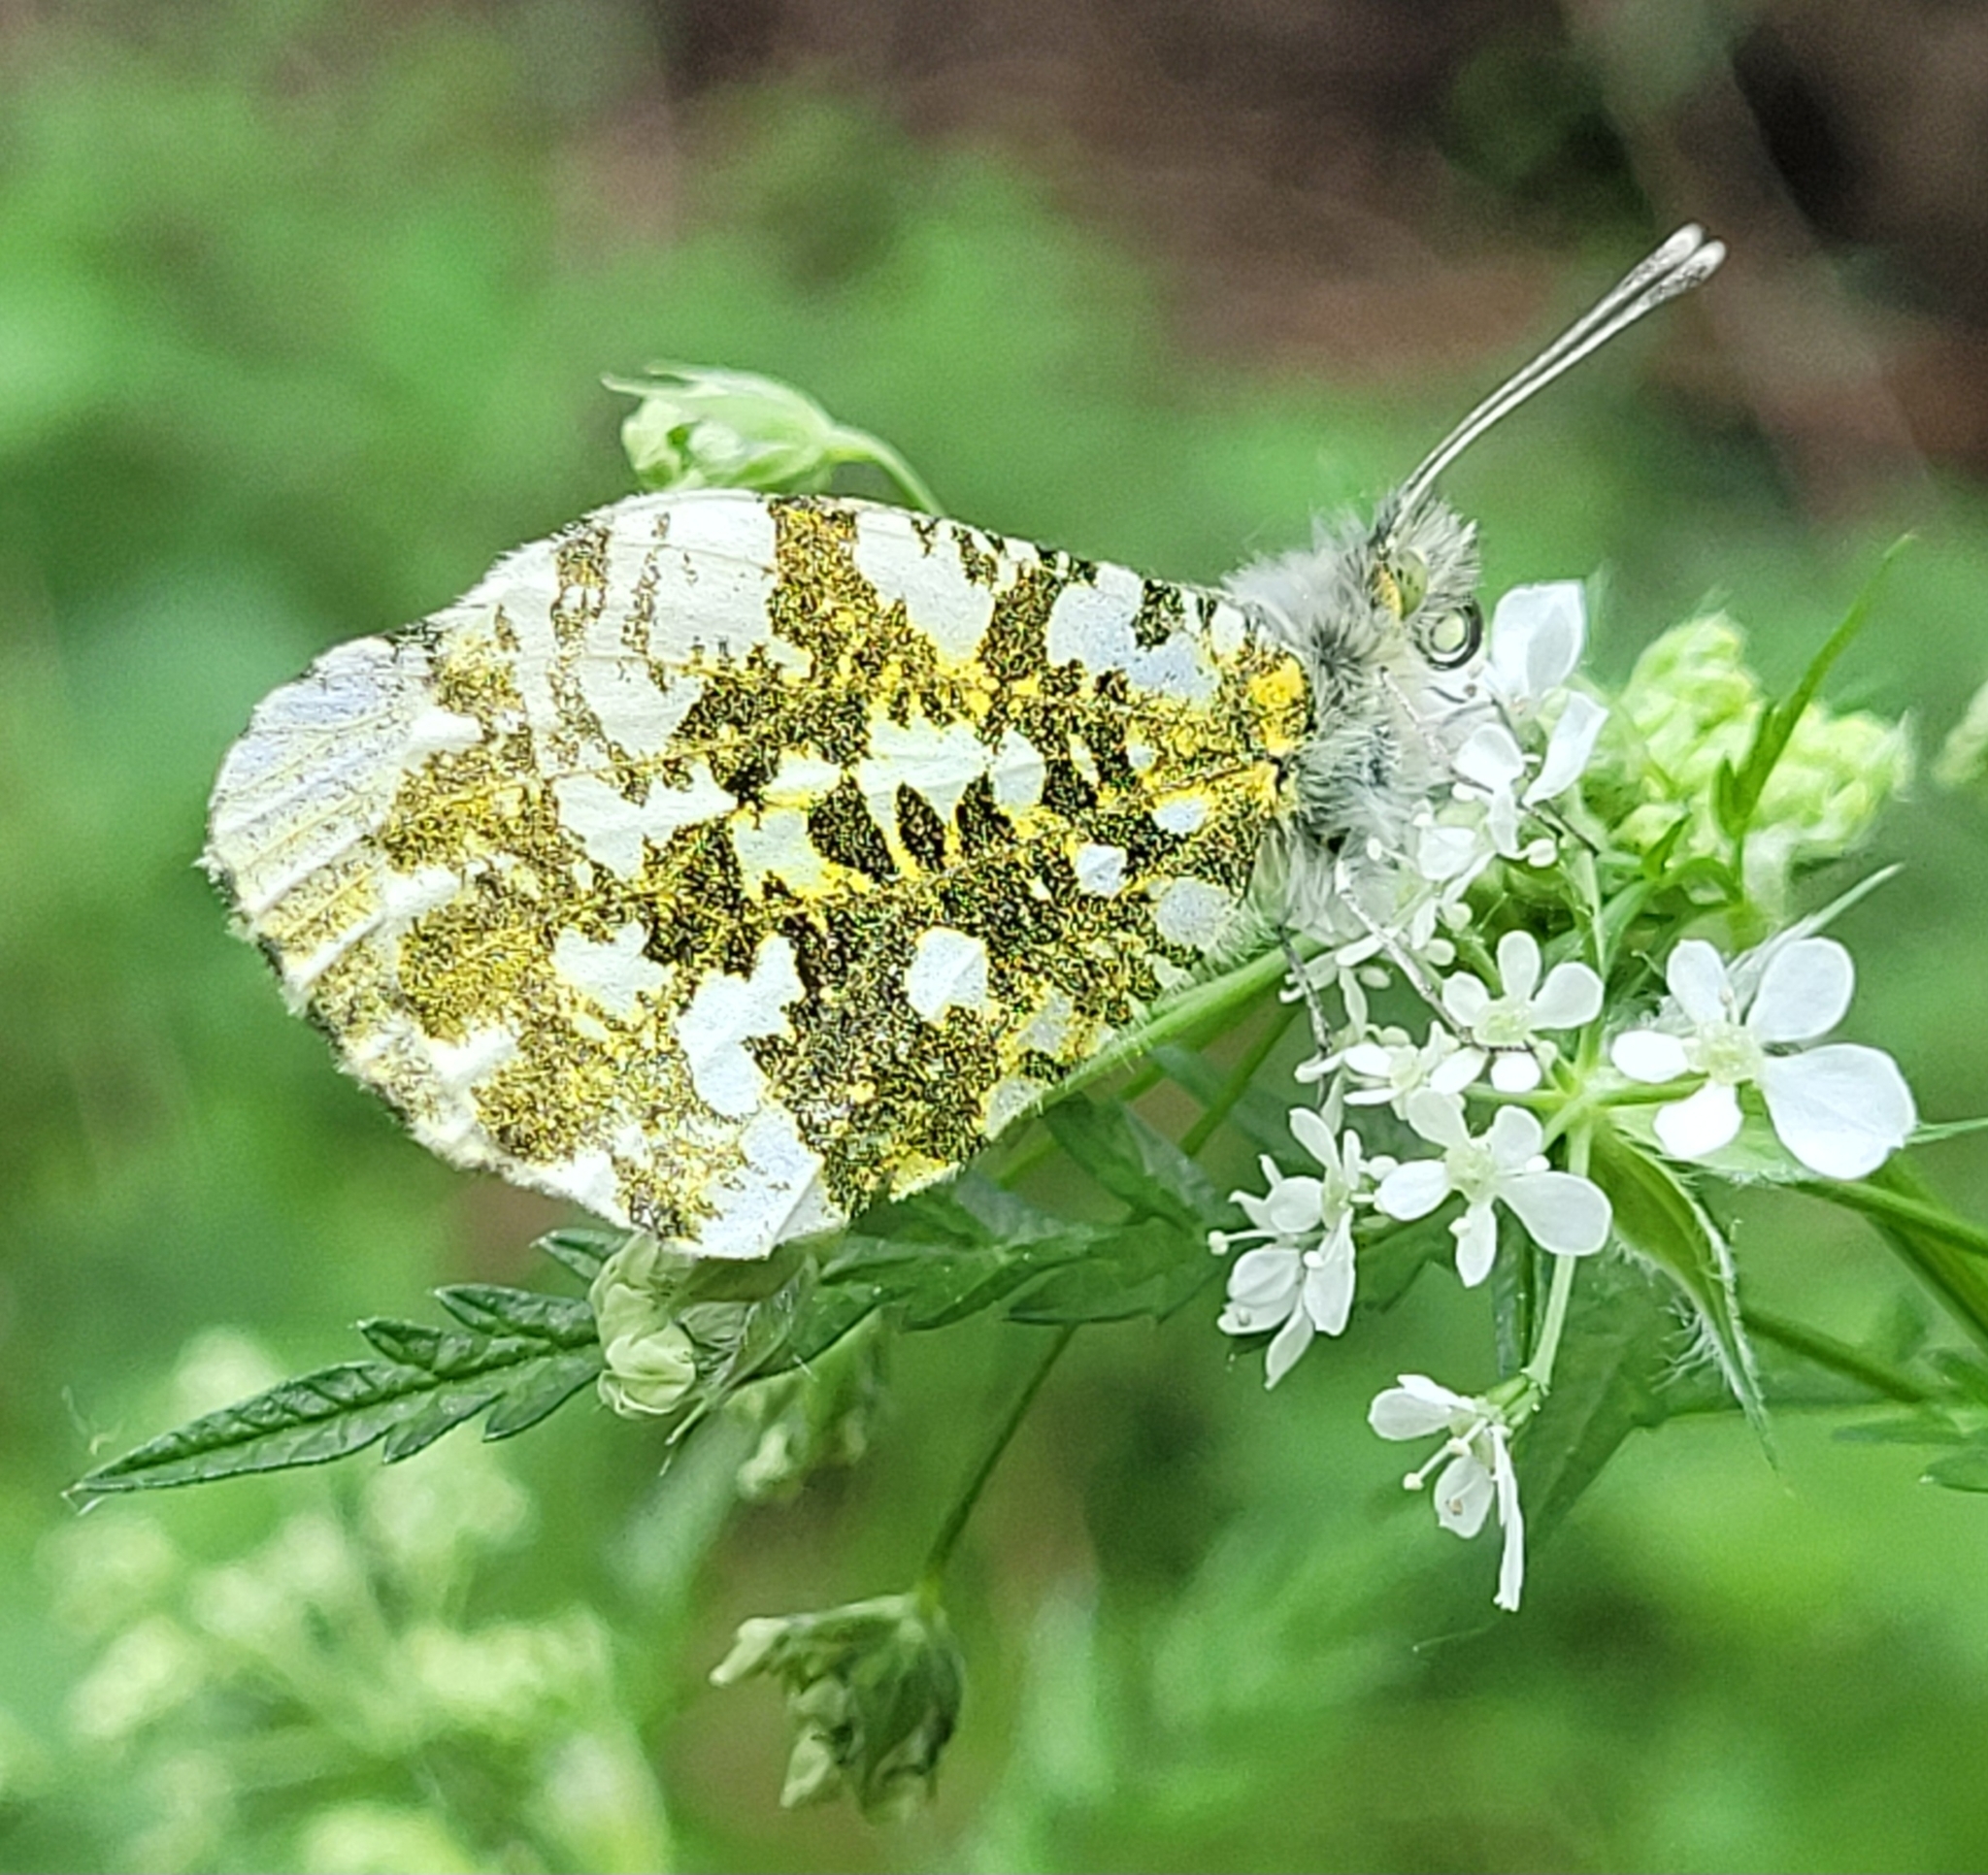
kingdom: Animalia
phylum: Arthropoda
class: Insecta
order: Lepidoptera
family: Pieridae
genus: Anthocharis
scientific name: Anthocharis cardamines
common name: Orange-tip
